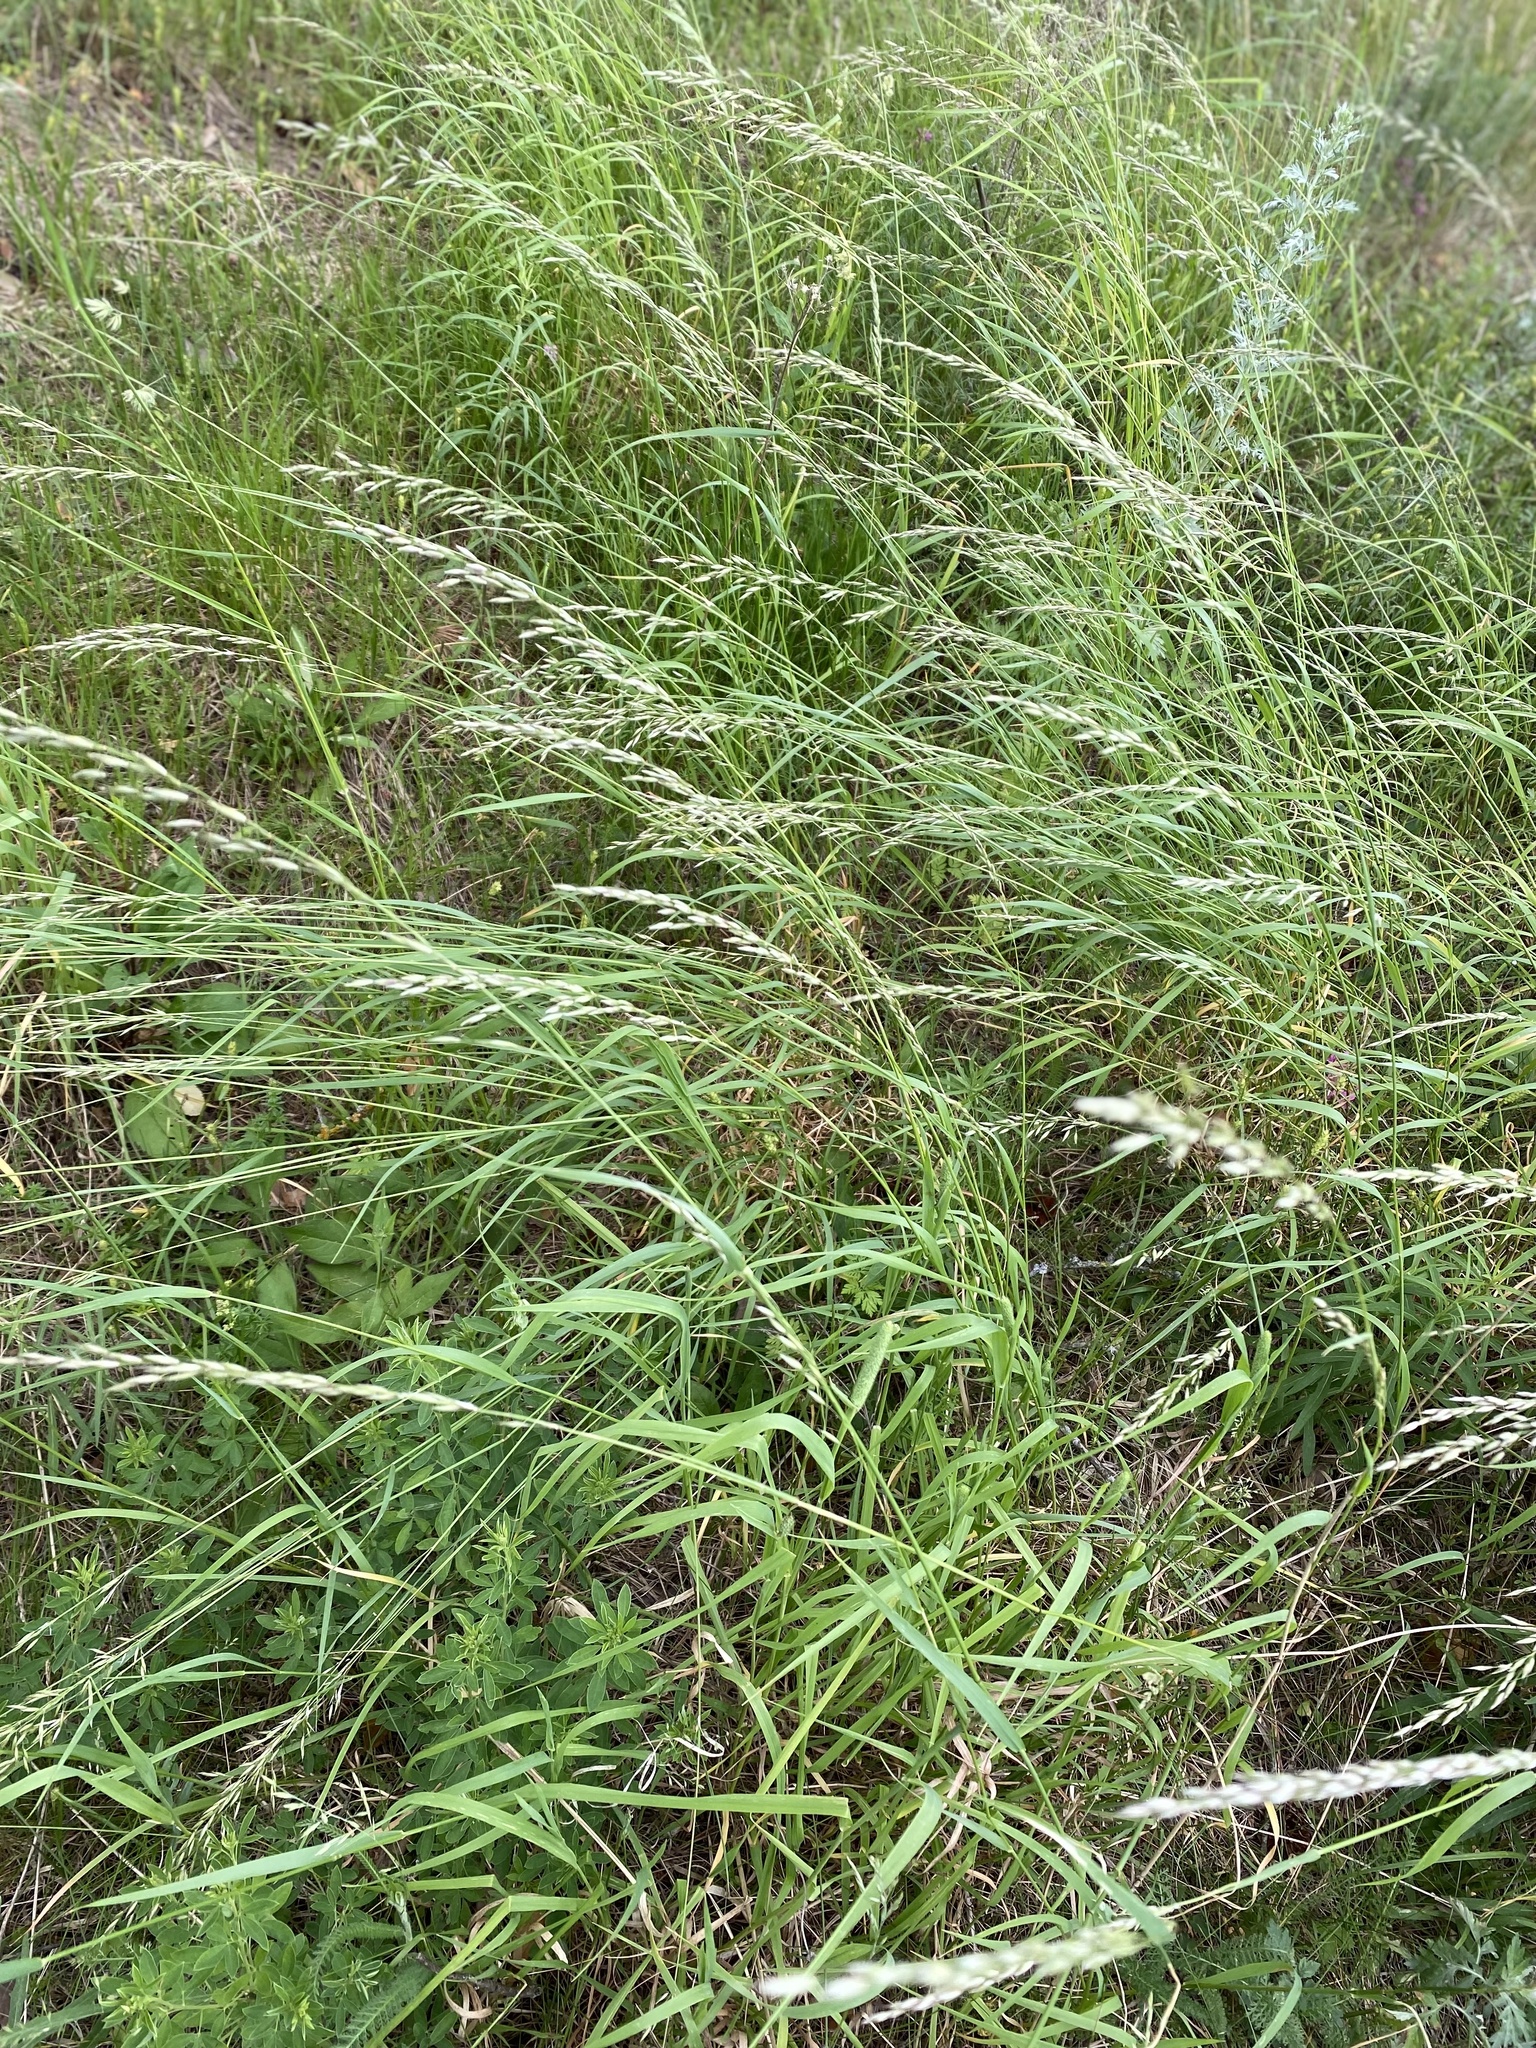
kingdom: Plantae
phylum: Tracheophyta
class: Liliopsida
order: Poales
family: Poaceae
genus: Arrhenatherum
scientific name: Arrhenatherum elatius
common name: Tall oatgrass
